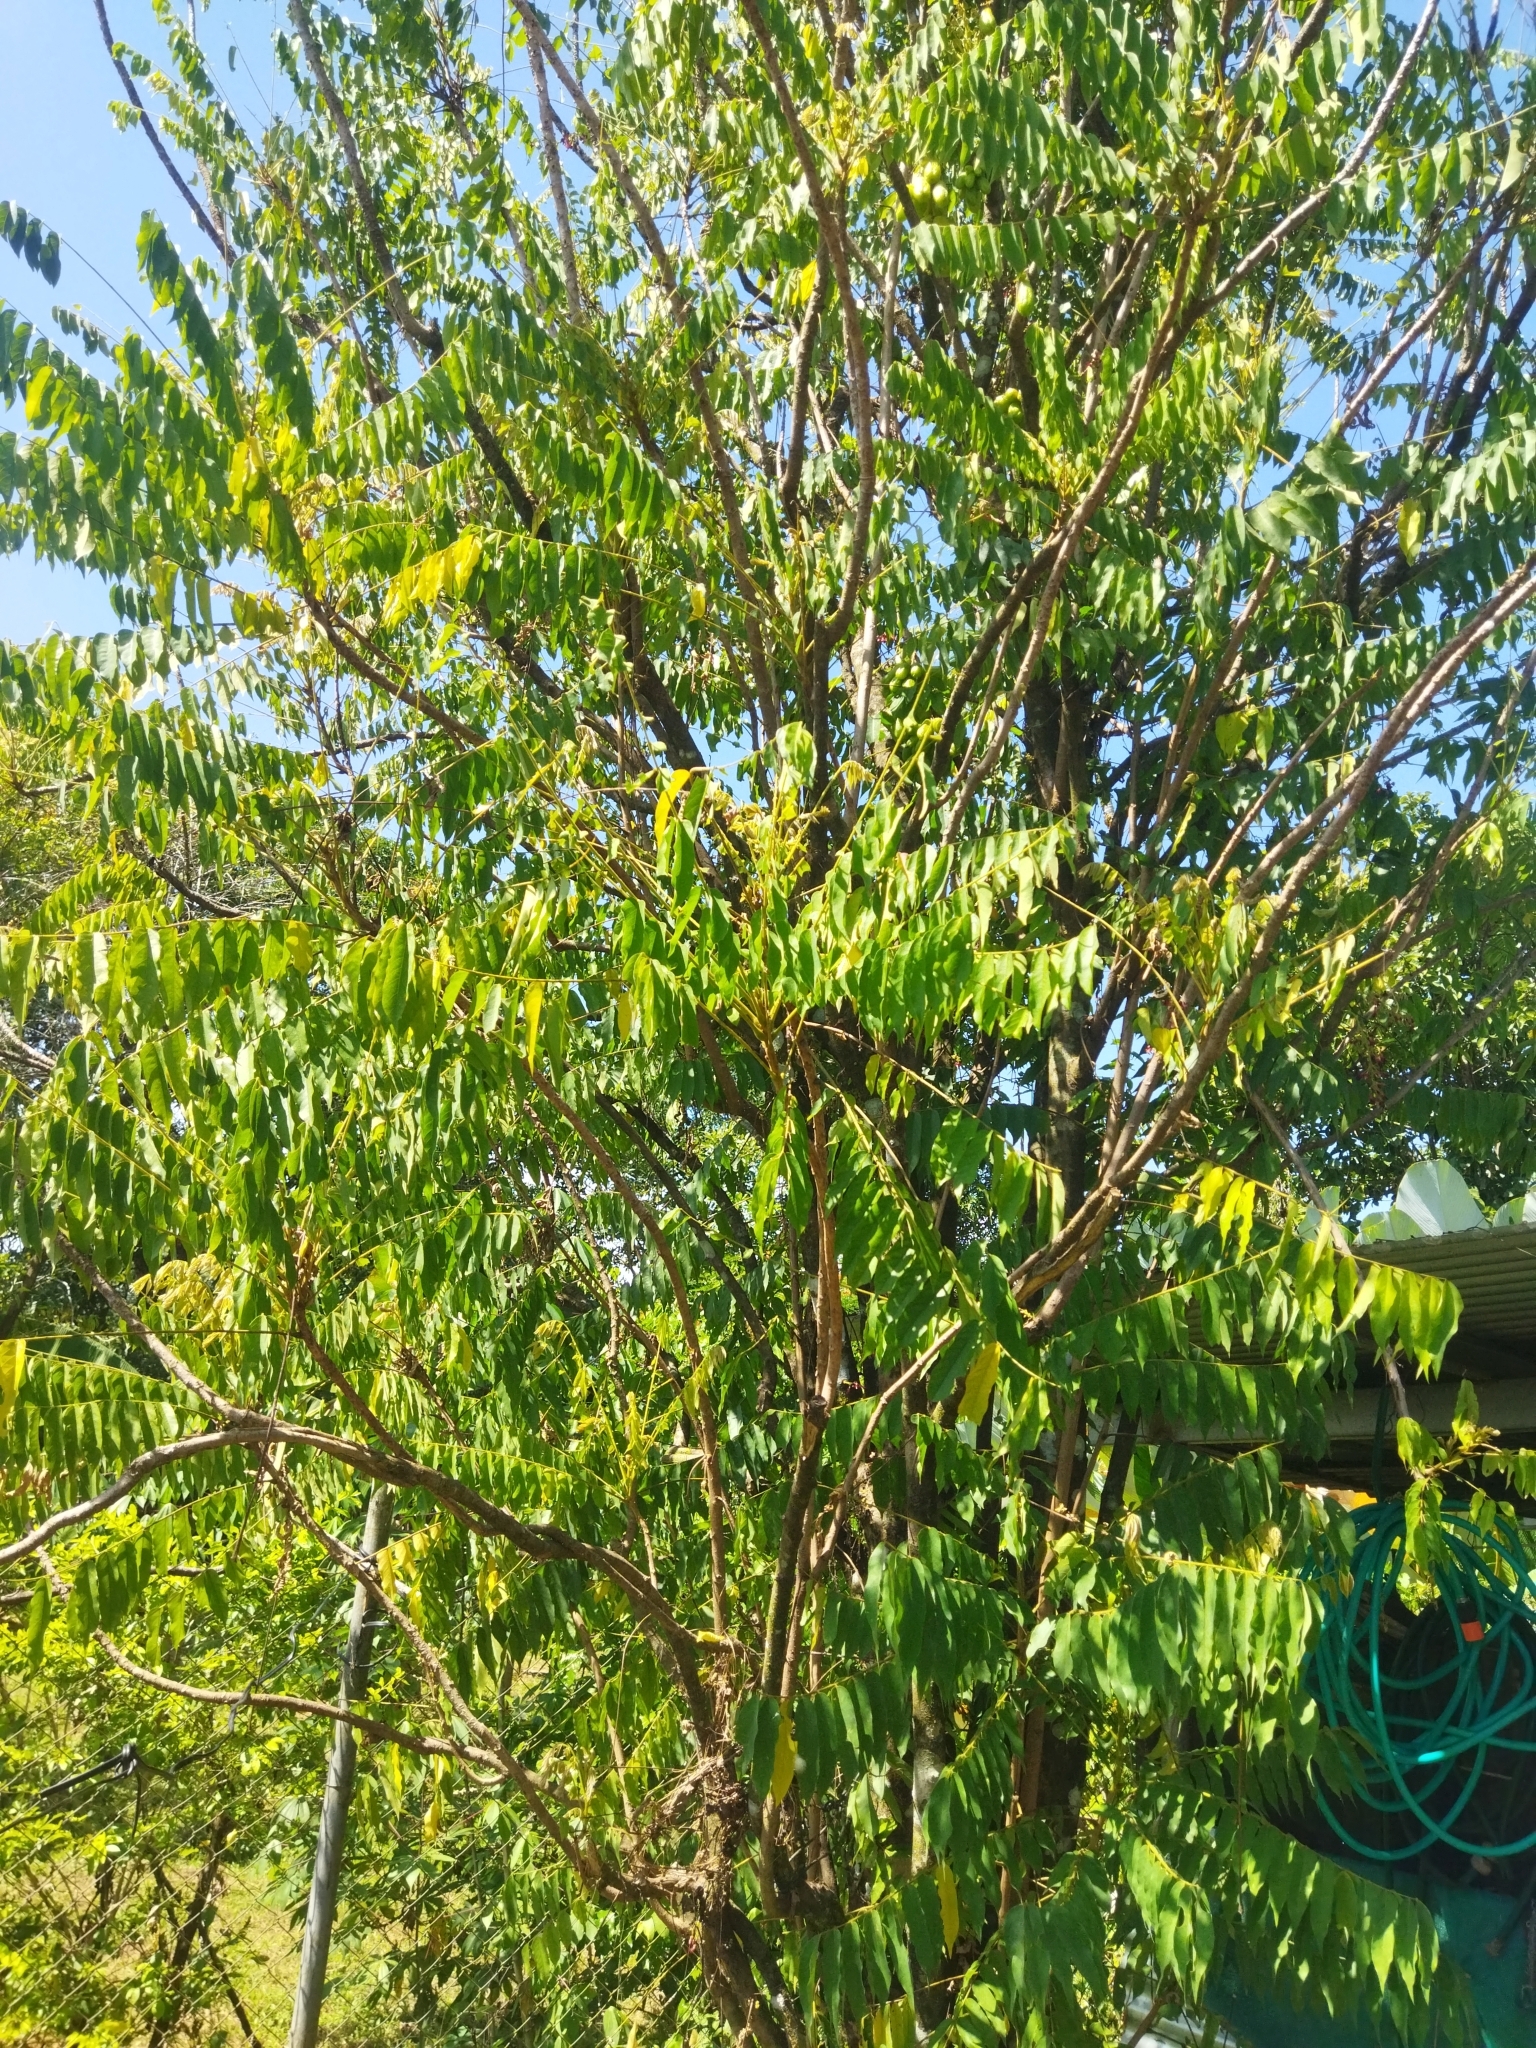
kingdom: Plantae
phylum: Tracheophyta
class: Magnoliopsida
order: Oxalidales
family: Oxalidaceae
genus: Averrhoa
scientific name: Averrhoa bilimbi
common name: Bilimbi
